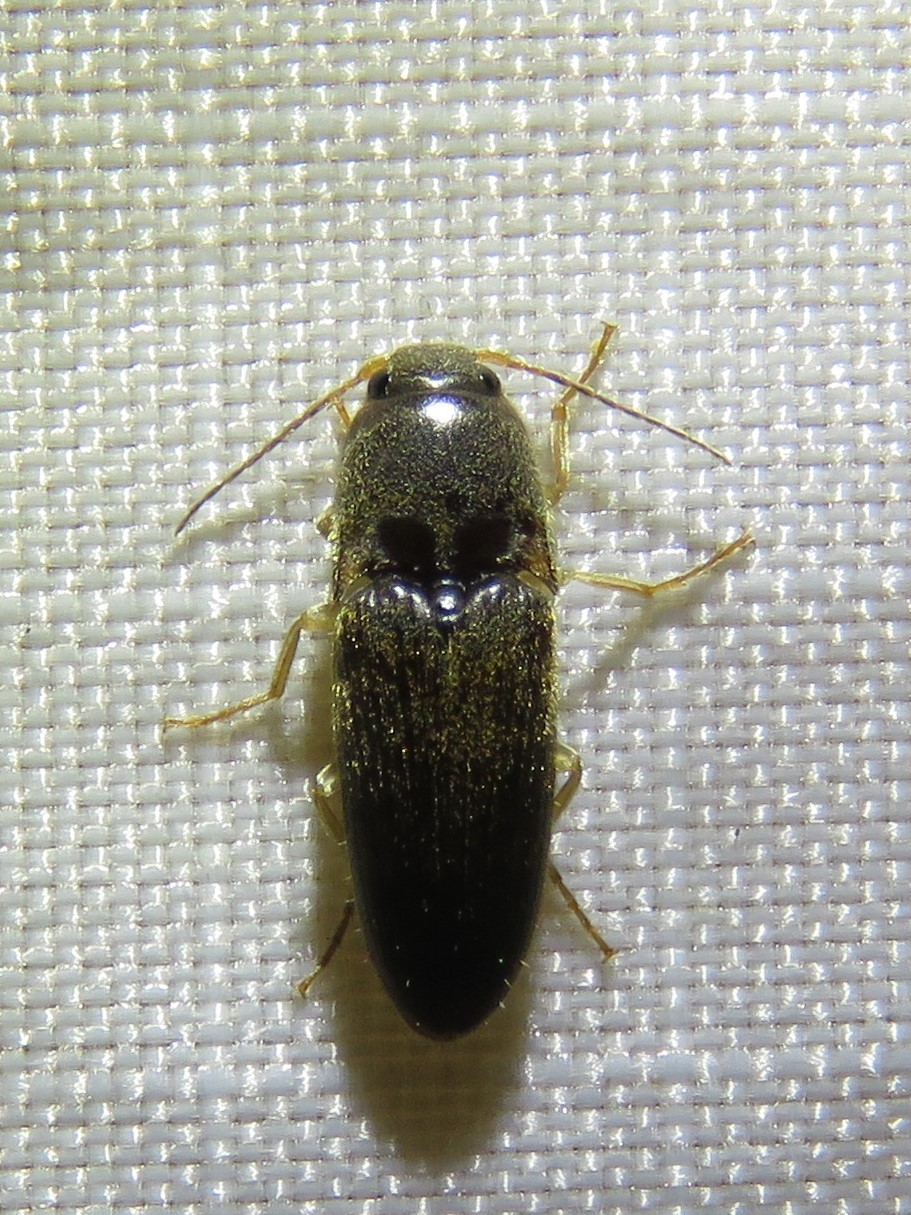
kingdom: Animalia
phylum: Arthropoda
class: Insecta
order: Coleoptera
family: Elateridae
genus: Monocrepidius
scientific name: Monocrepidius
